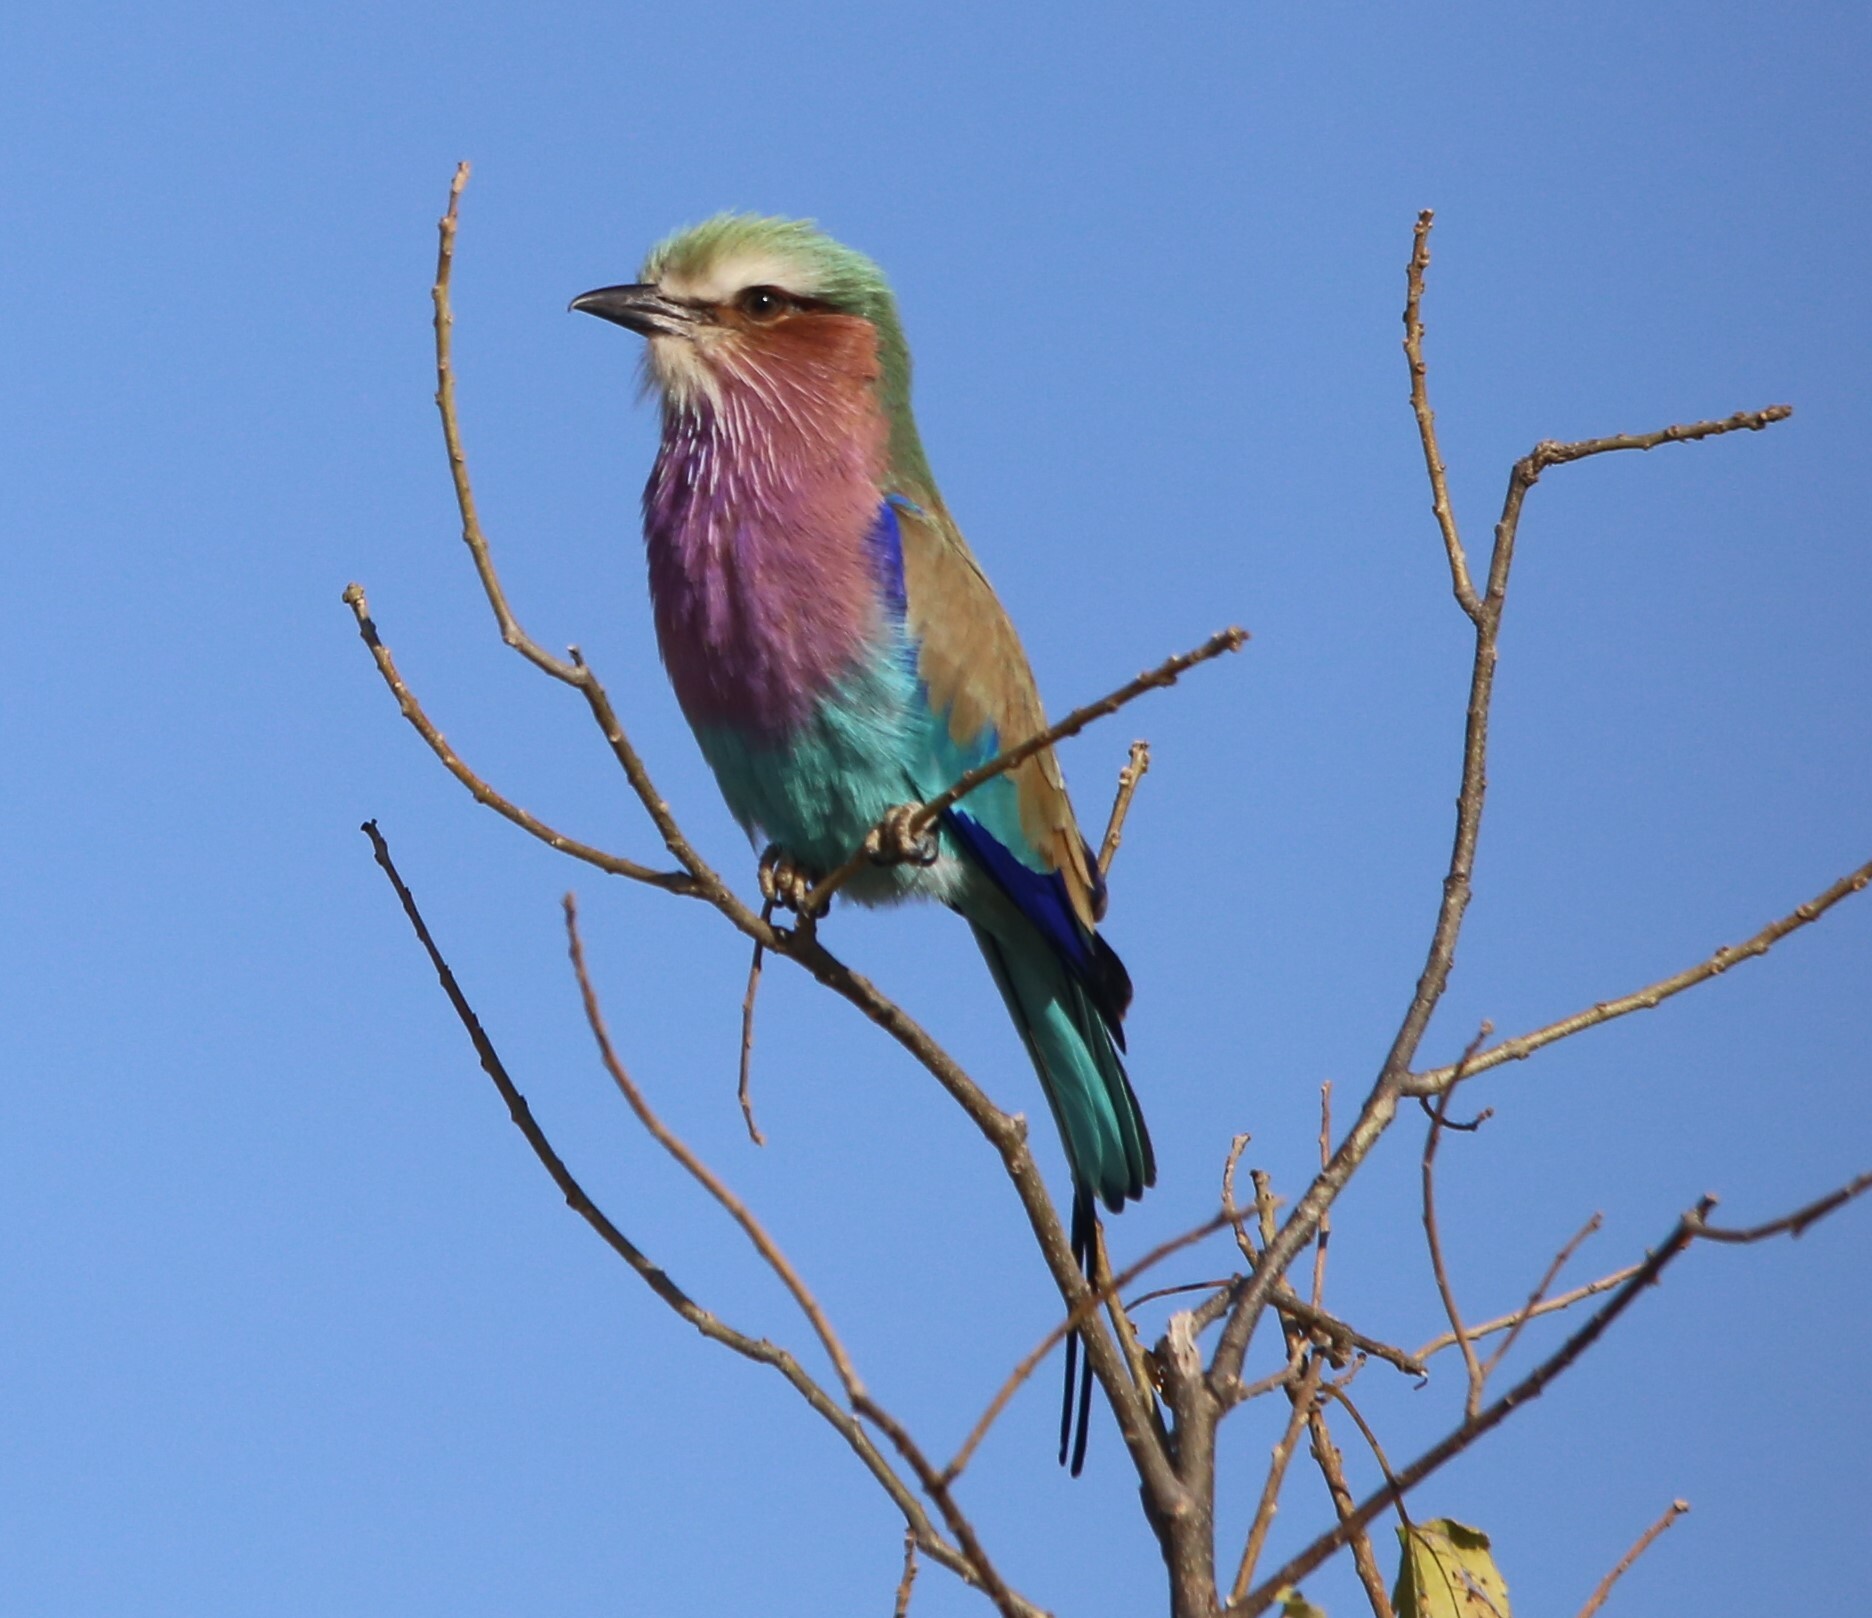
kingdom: Animalia
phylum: Chordata
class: Aves
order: Coraciiformes
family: Coraciidae
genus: Coracias
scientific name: Coracias caudatus
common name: Lilac-breasted roller
